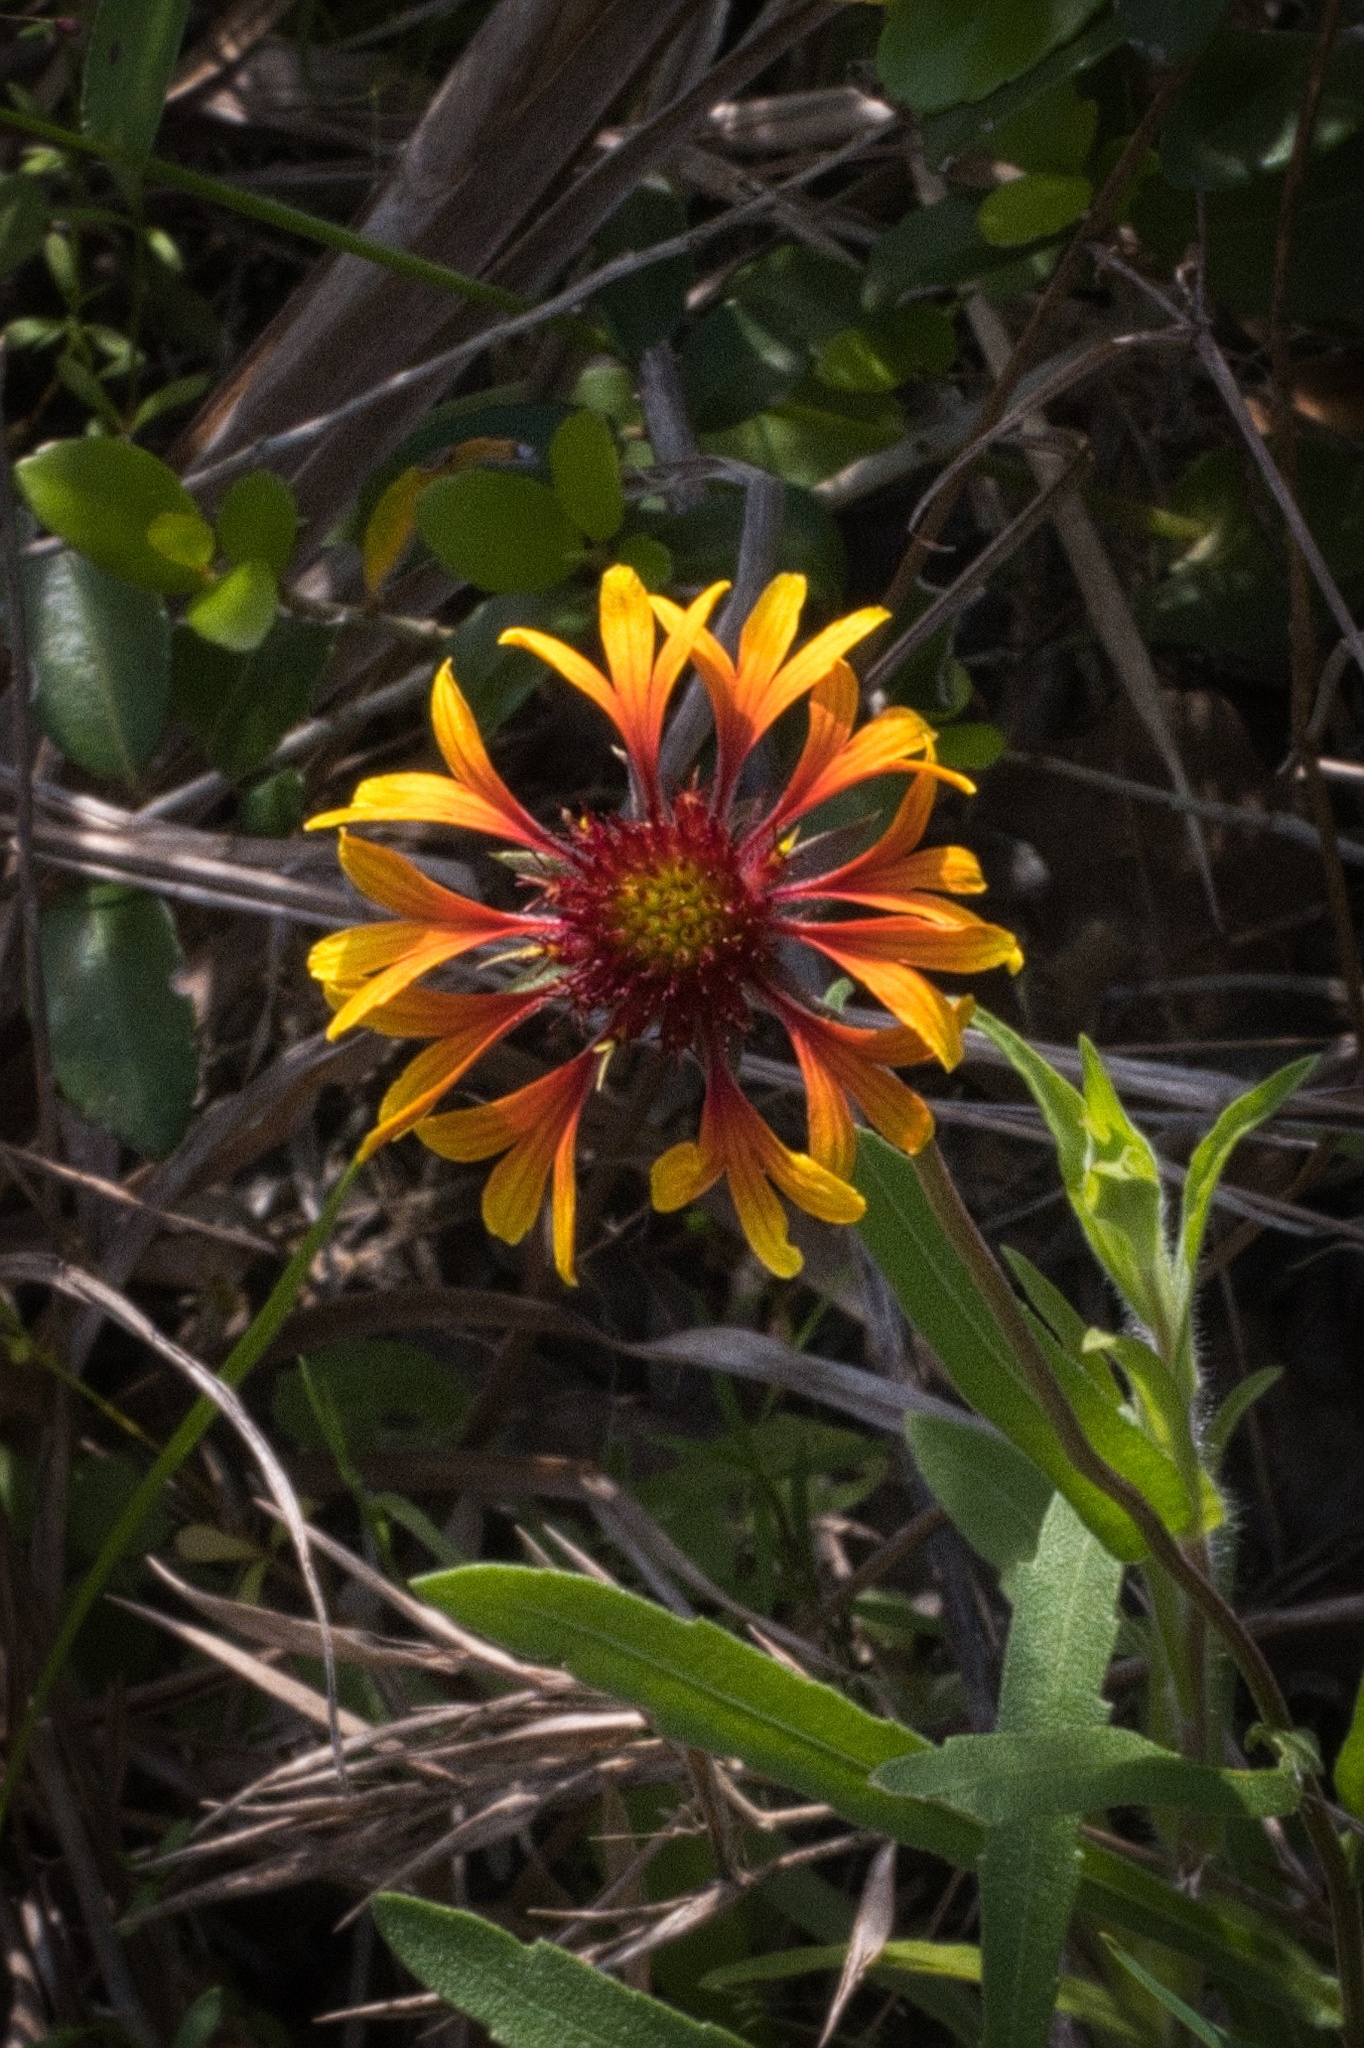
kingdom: Plantae
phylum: Tracheophyta
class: Magnoliopsida
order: Asterales
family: Asteraceae
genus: Gaillardia
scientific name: Gaillardia aestivalis
